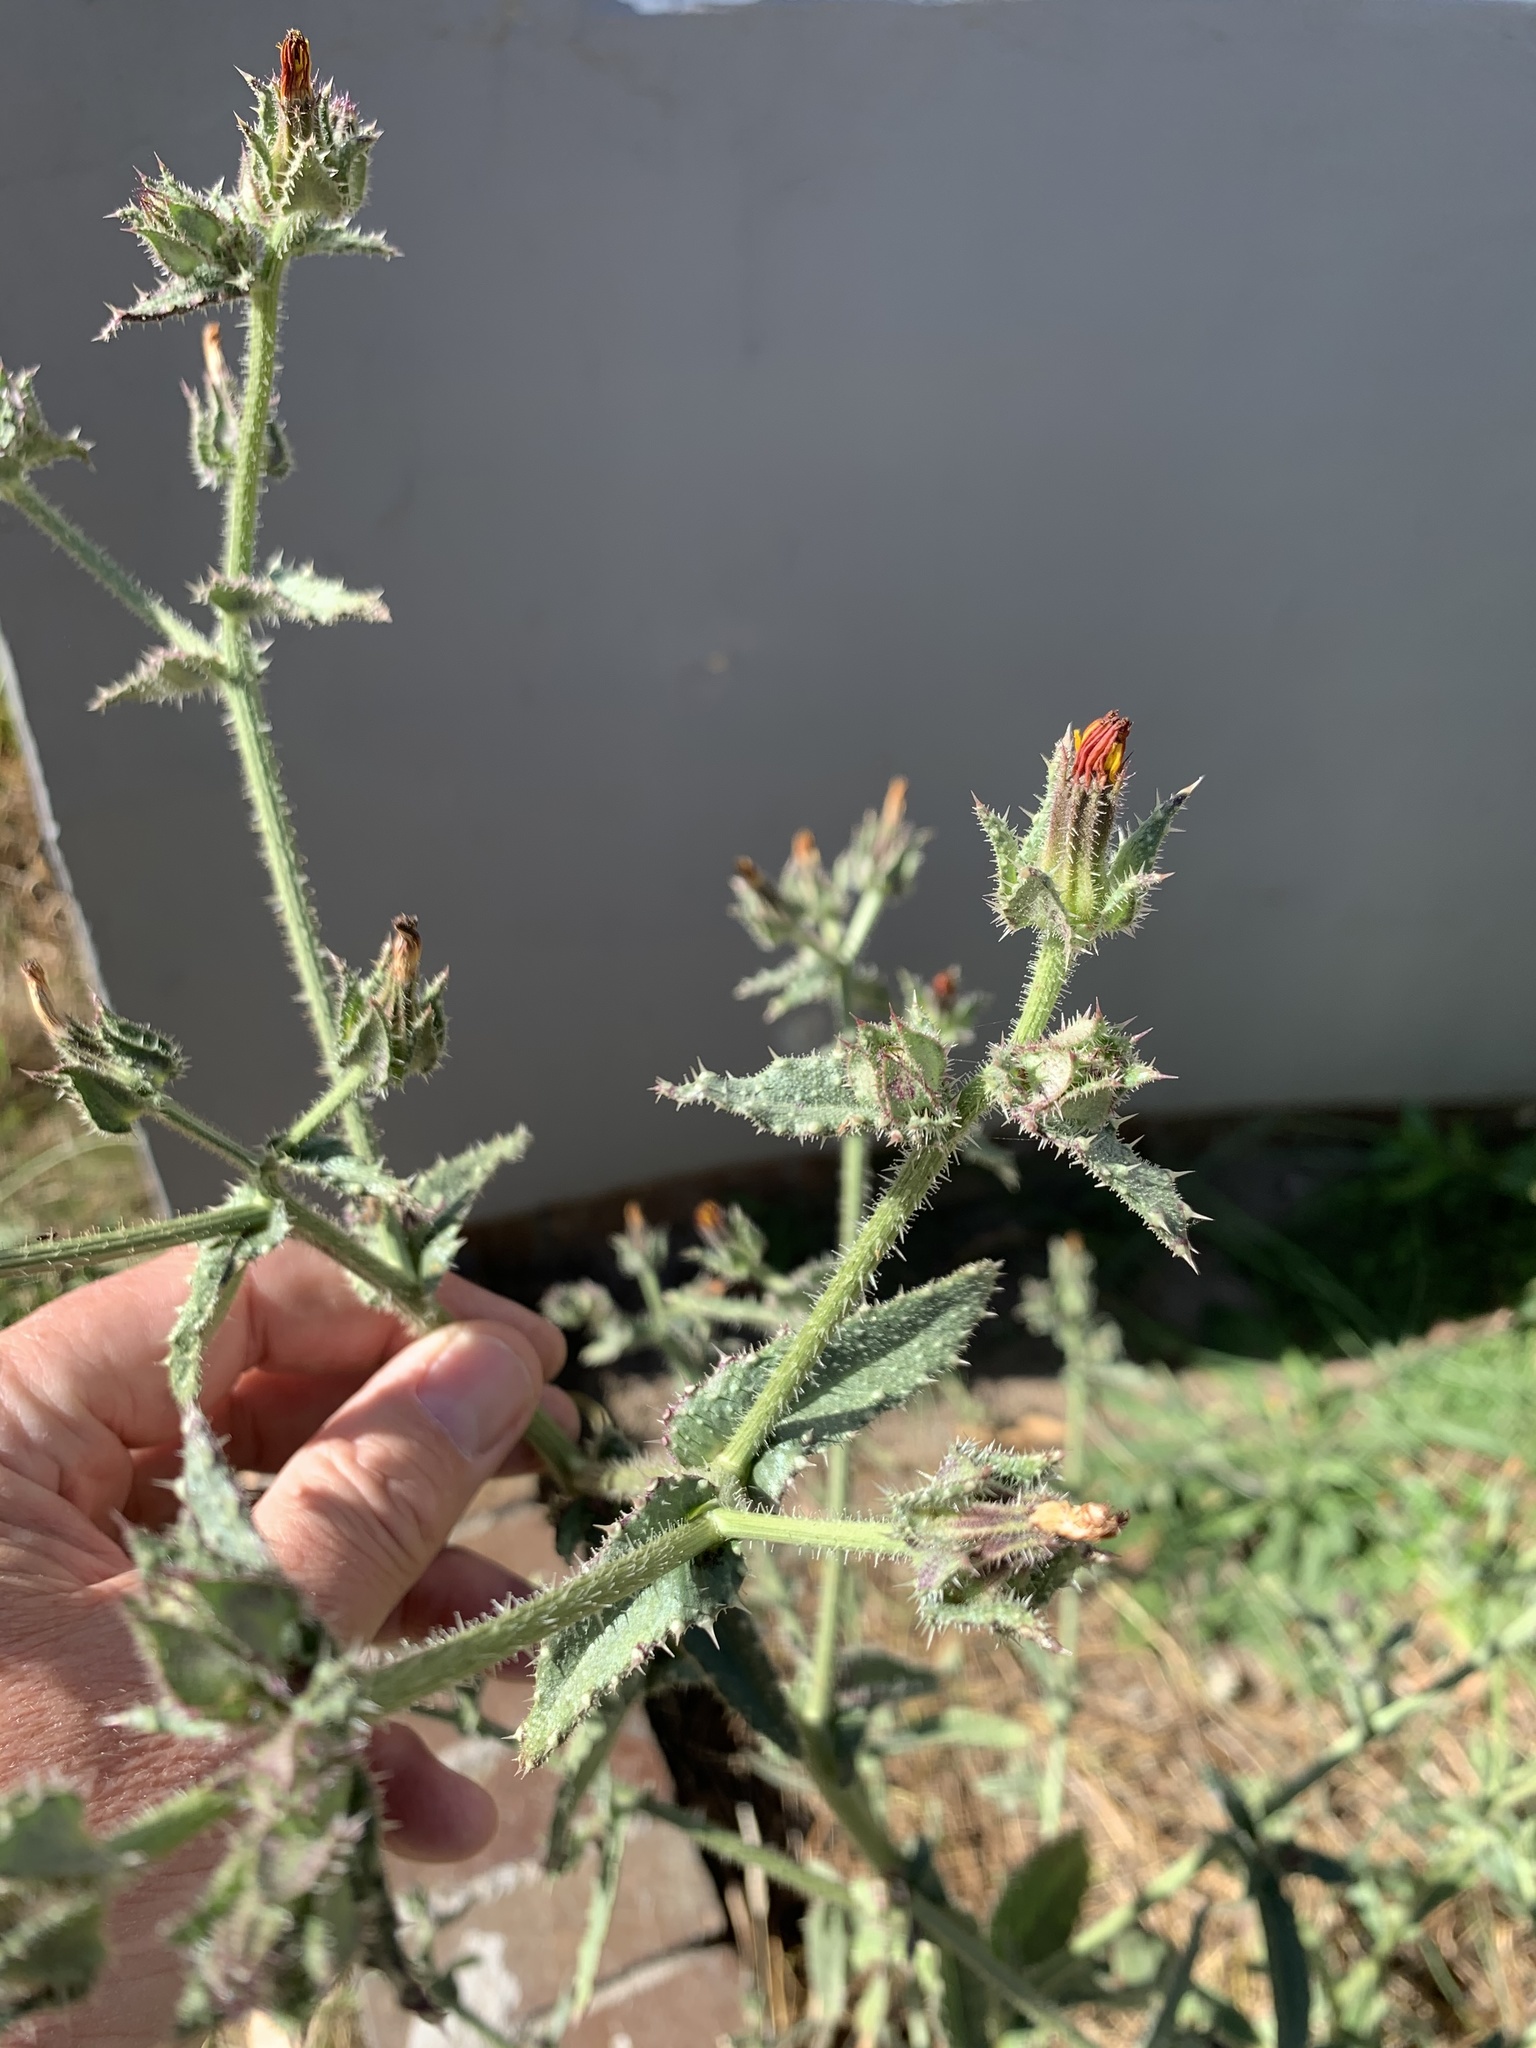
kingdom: Plantae
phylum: Tracheophyta
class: Magnoliopsida
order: Asterales
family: Asteraceae
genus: Helminthotheca
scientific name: Helminthotheca echioides
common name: Ox-tongue
